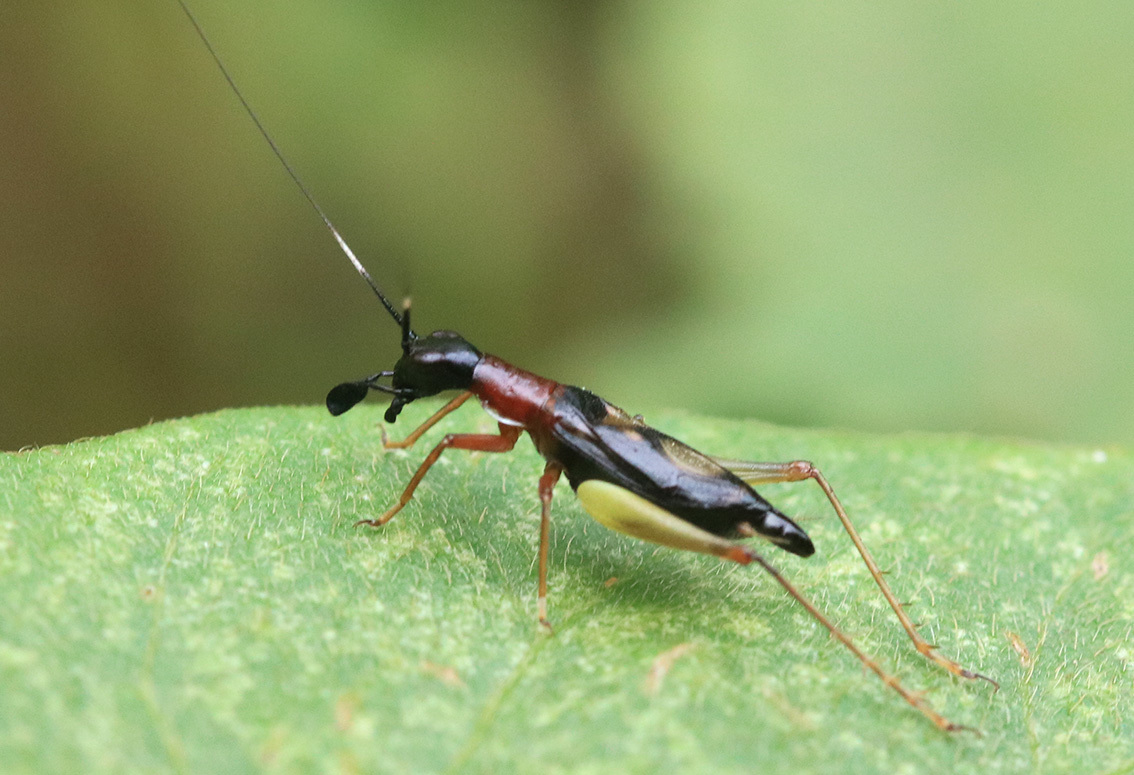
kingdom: Animalia
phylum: Arthropoda
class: Insecta
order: Orthoptera
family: Trigonidiidae
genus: Cranistus
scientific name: Cranistus colliurides
